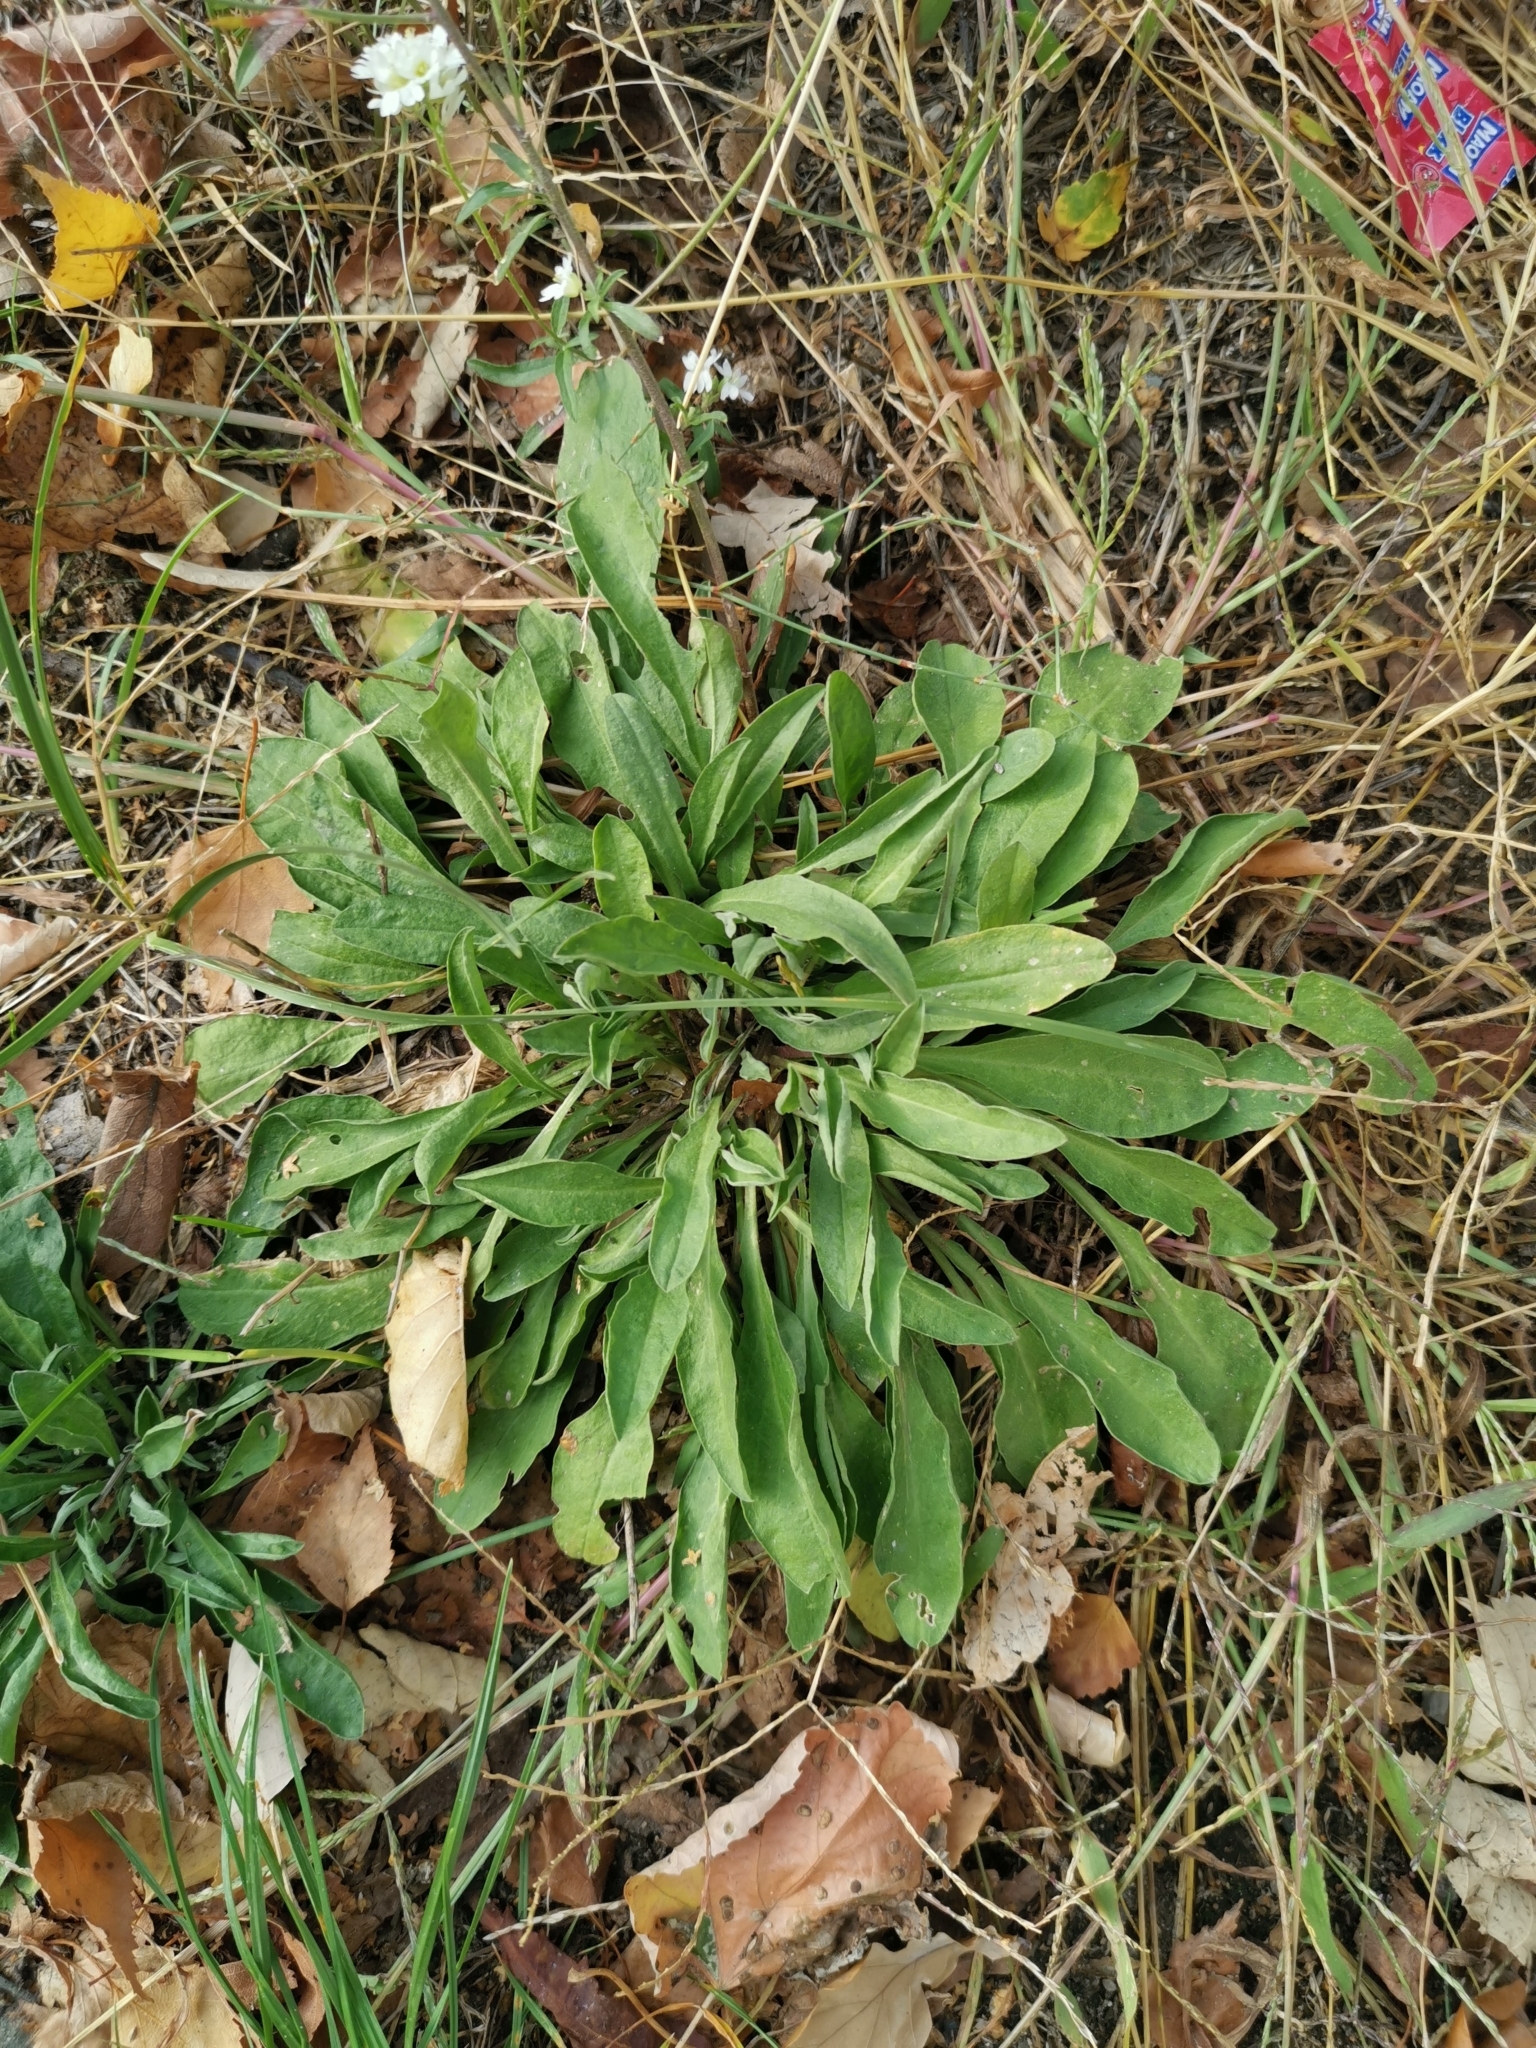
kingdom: Plantae
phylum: Tracheophyta
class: Magnoliopsida
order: Brassicales
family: Brassicaceae
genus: Berteroa
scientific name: Berteroa incana
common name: Hoary alison
